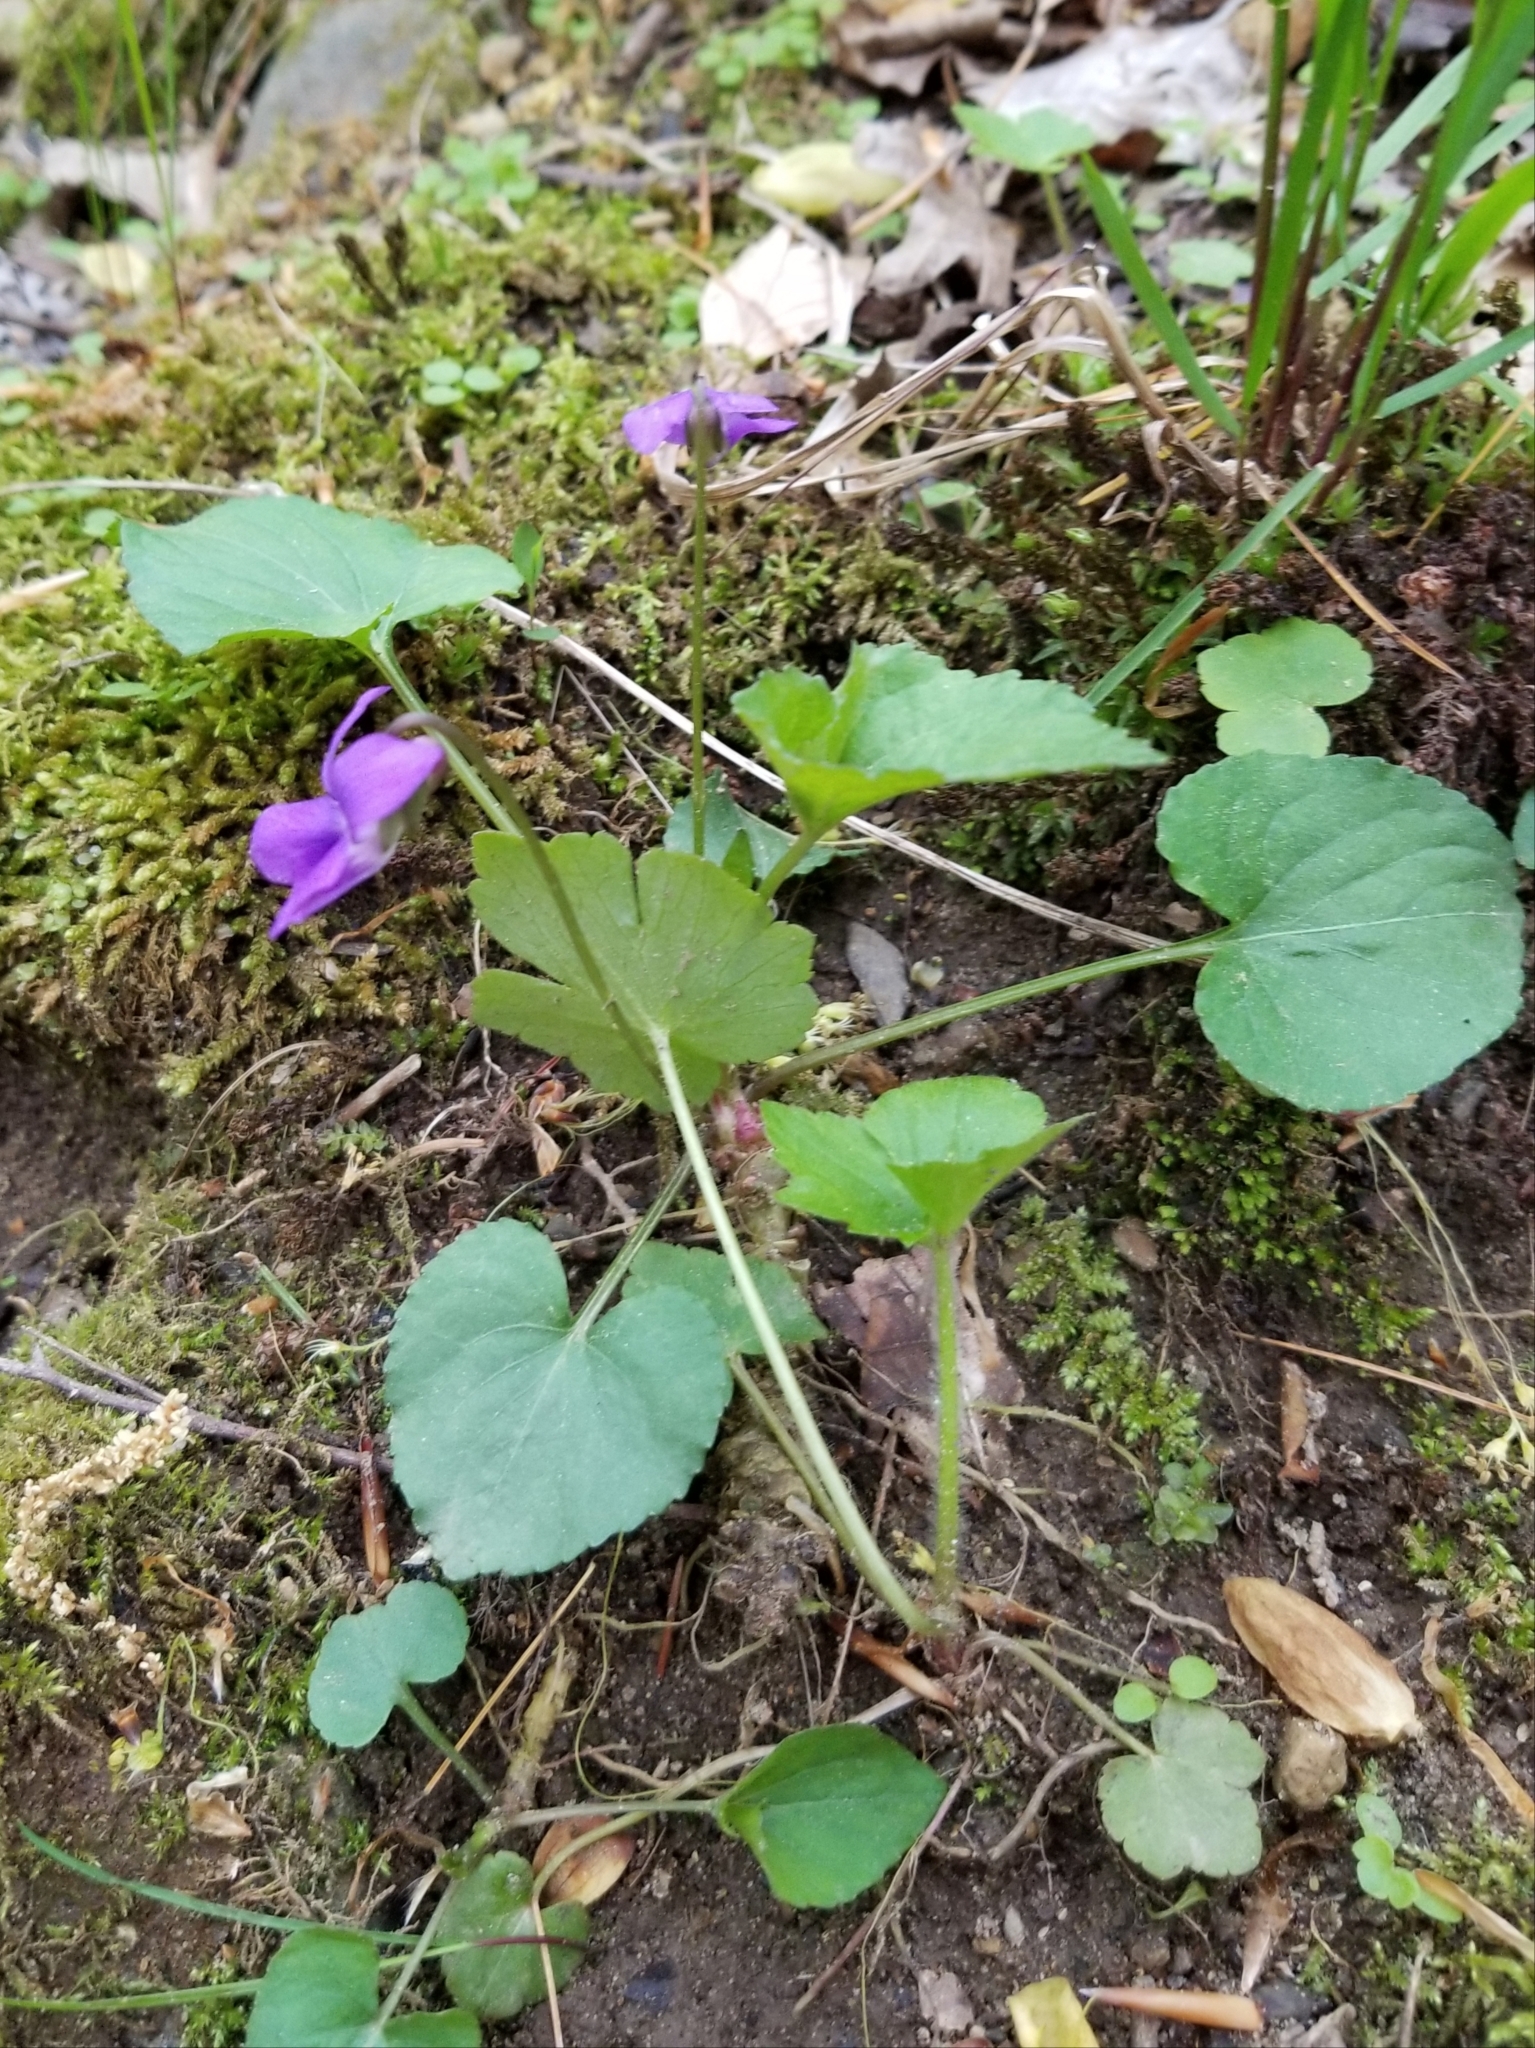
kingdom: Plantae
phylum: Tracheophyta
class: Magnoliopsida
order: Malpighiales
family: Violaceae
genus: Viola
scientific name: Viola sororia
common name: Dooryard violet
